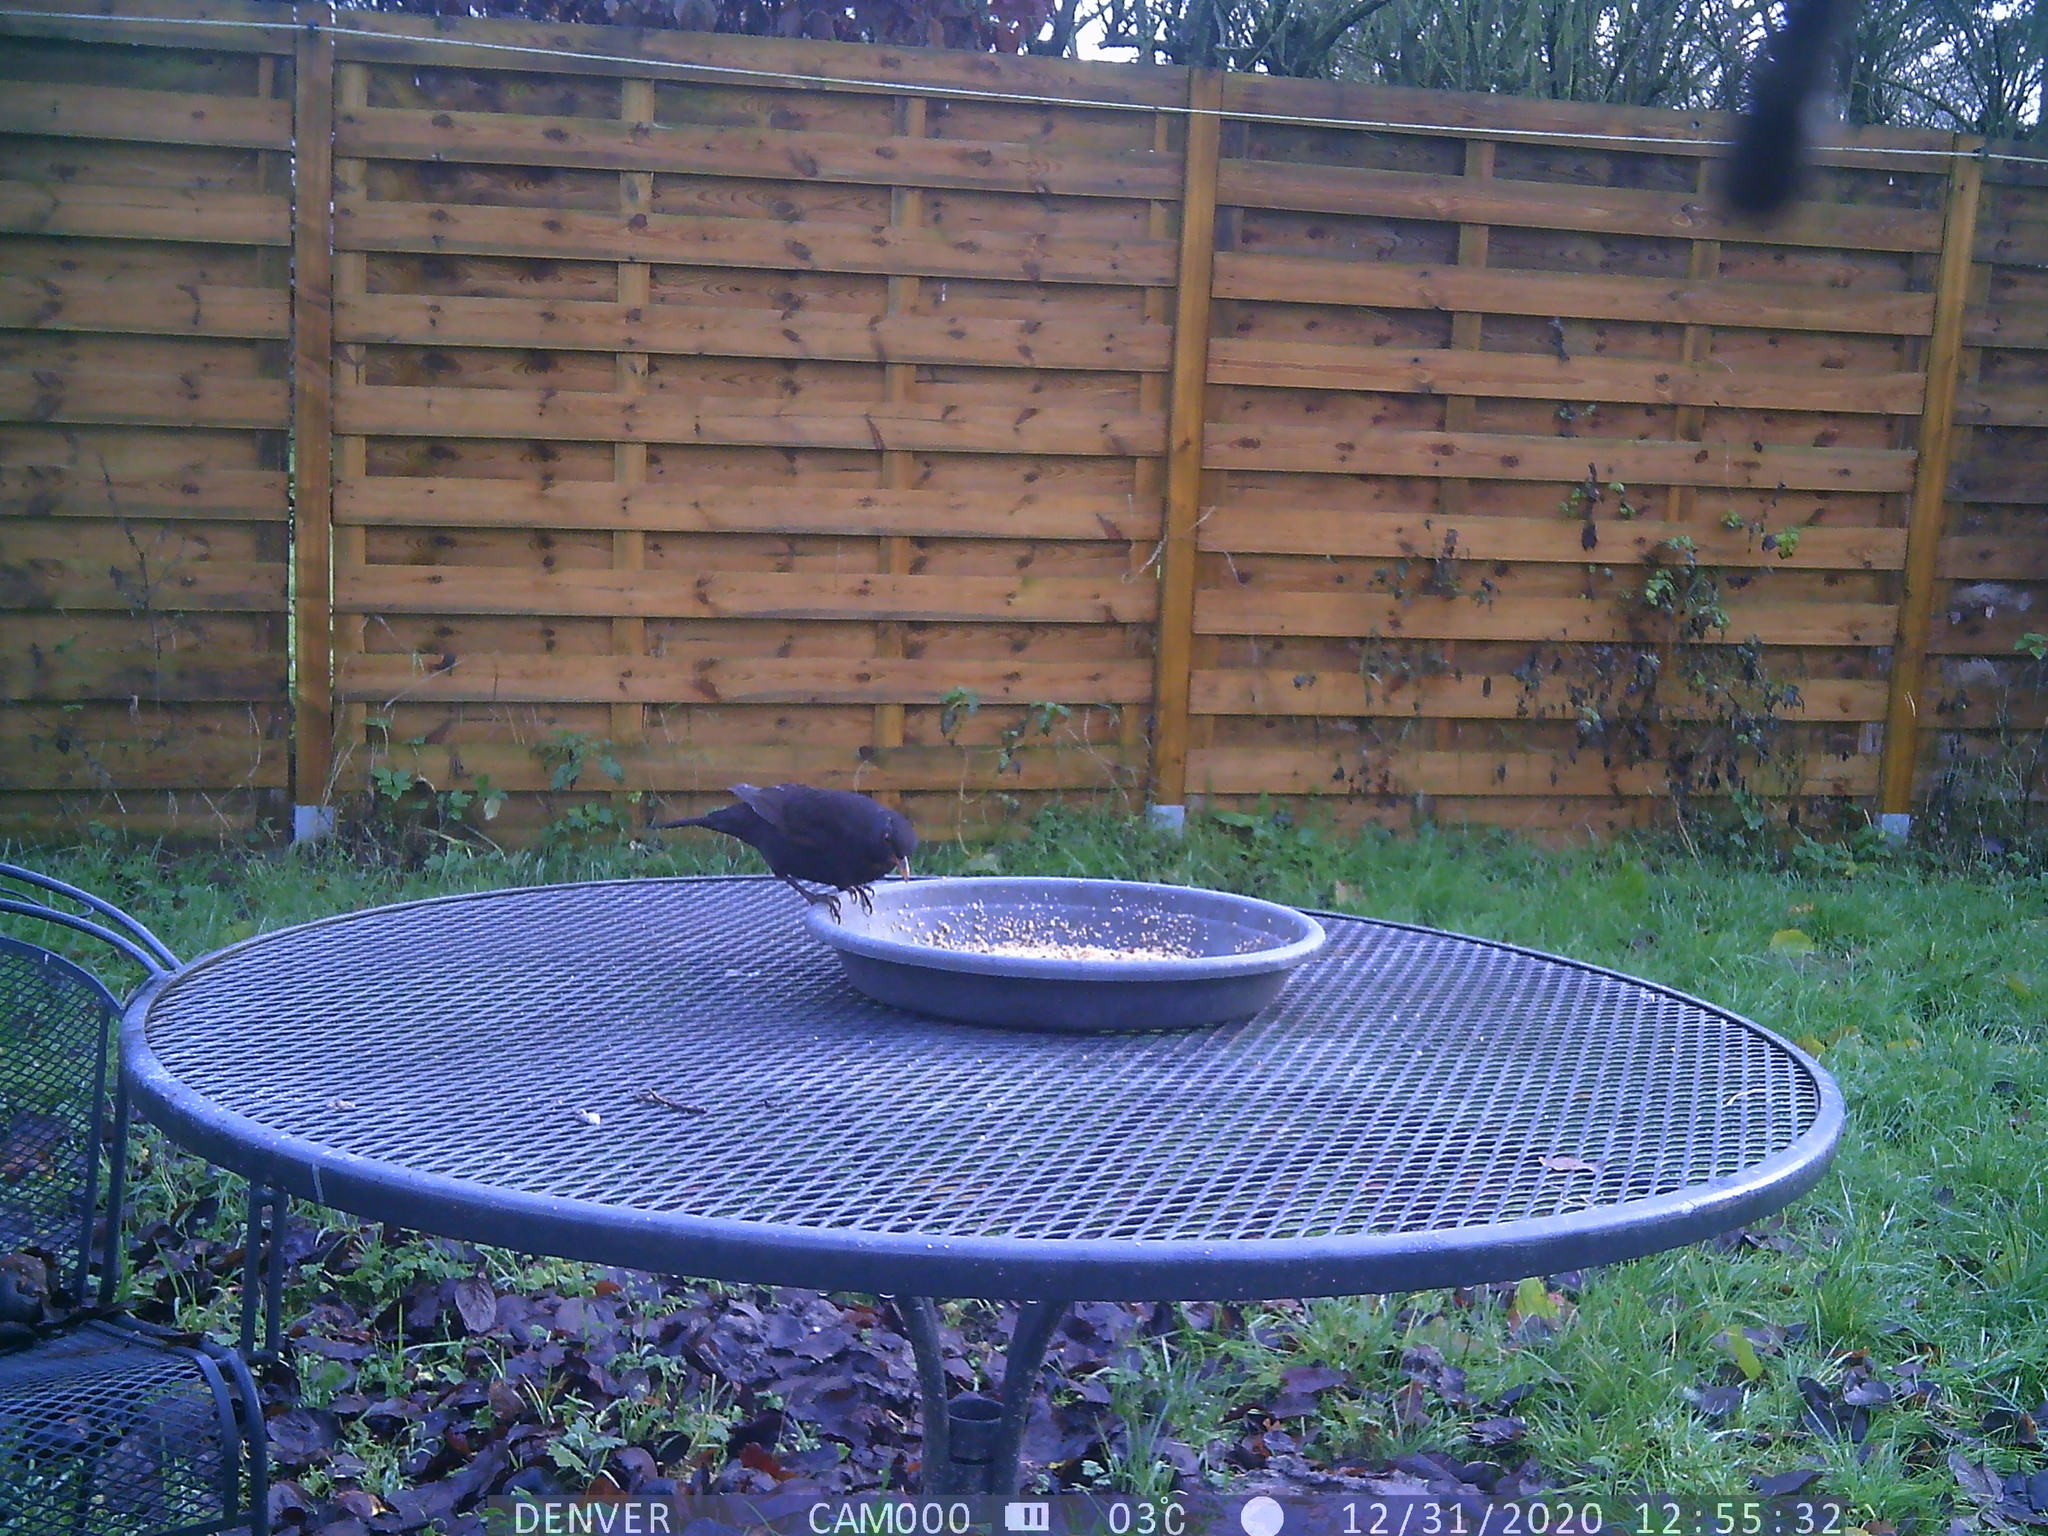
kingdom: Animalia
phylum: Chordata
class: Aves
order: Passeriformes
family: Turdidae
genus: Turdus
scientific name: Turdus merula
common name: Common blackbird
